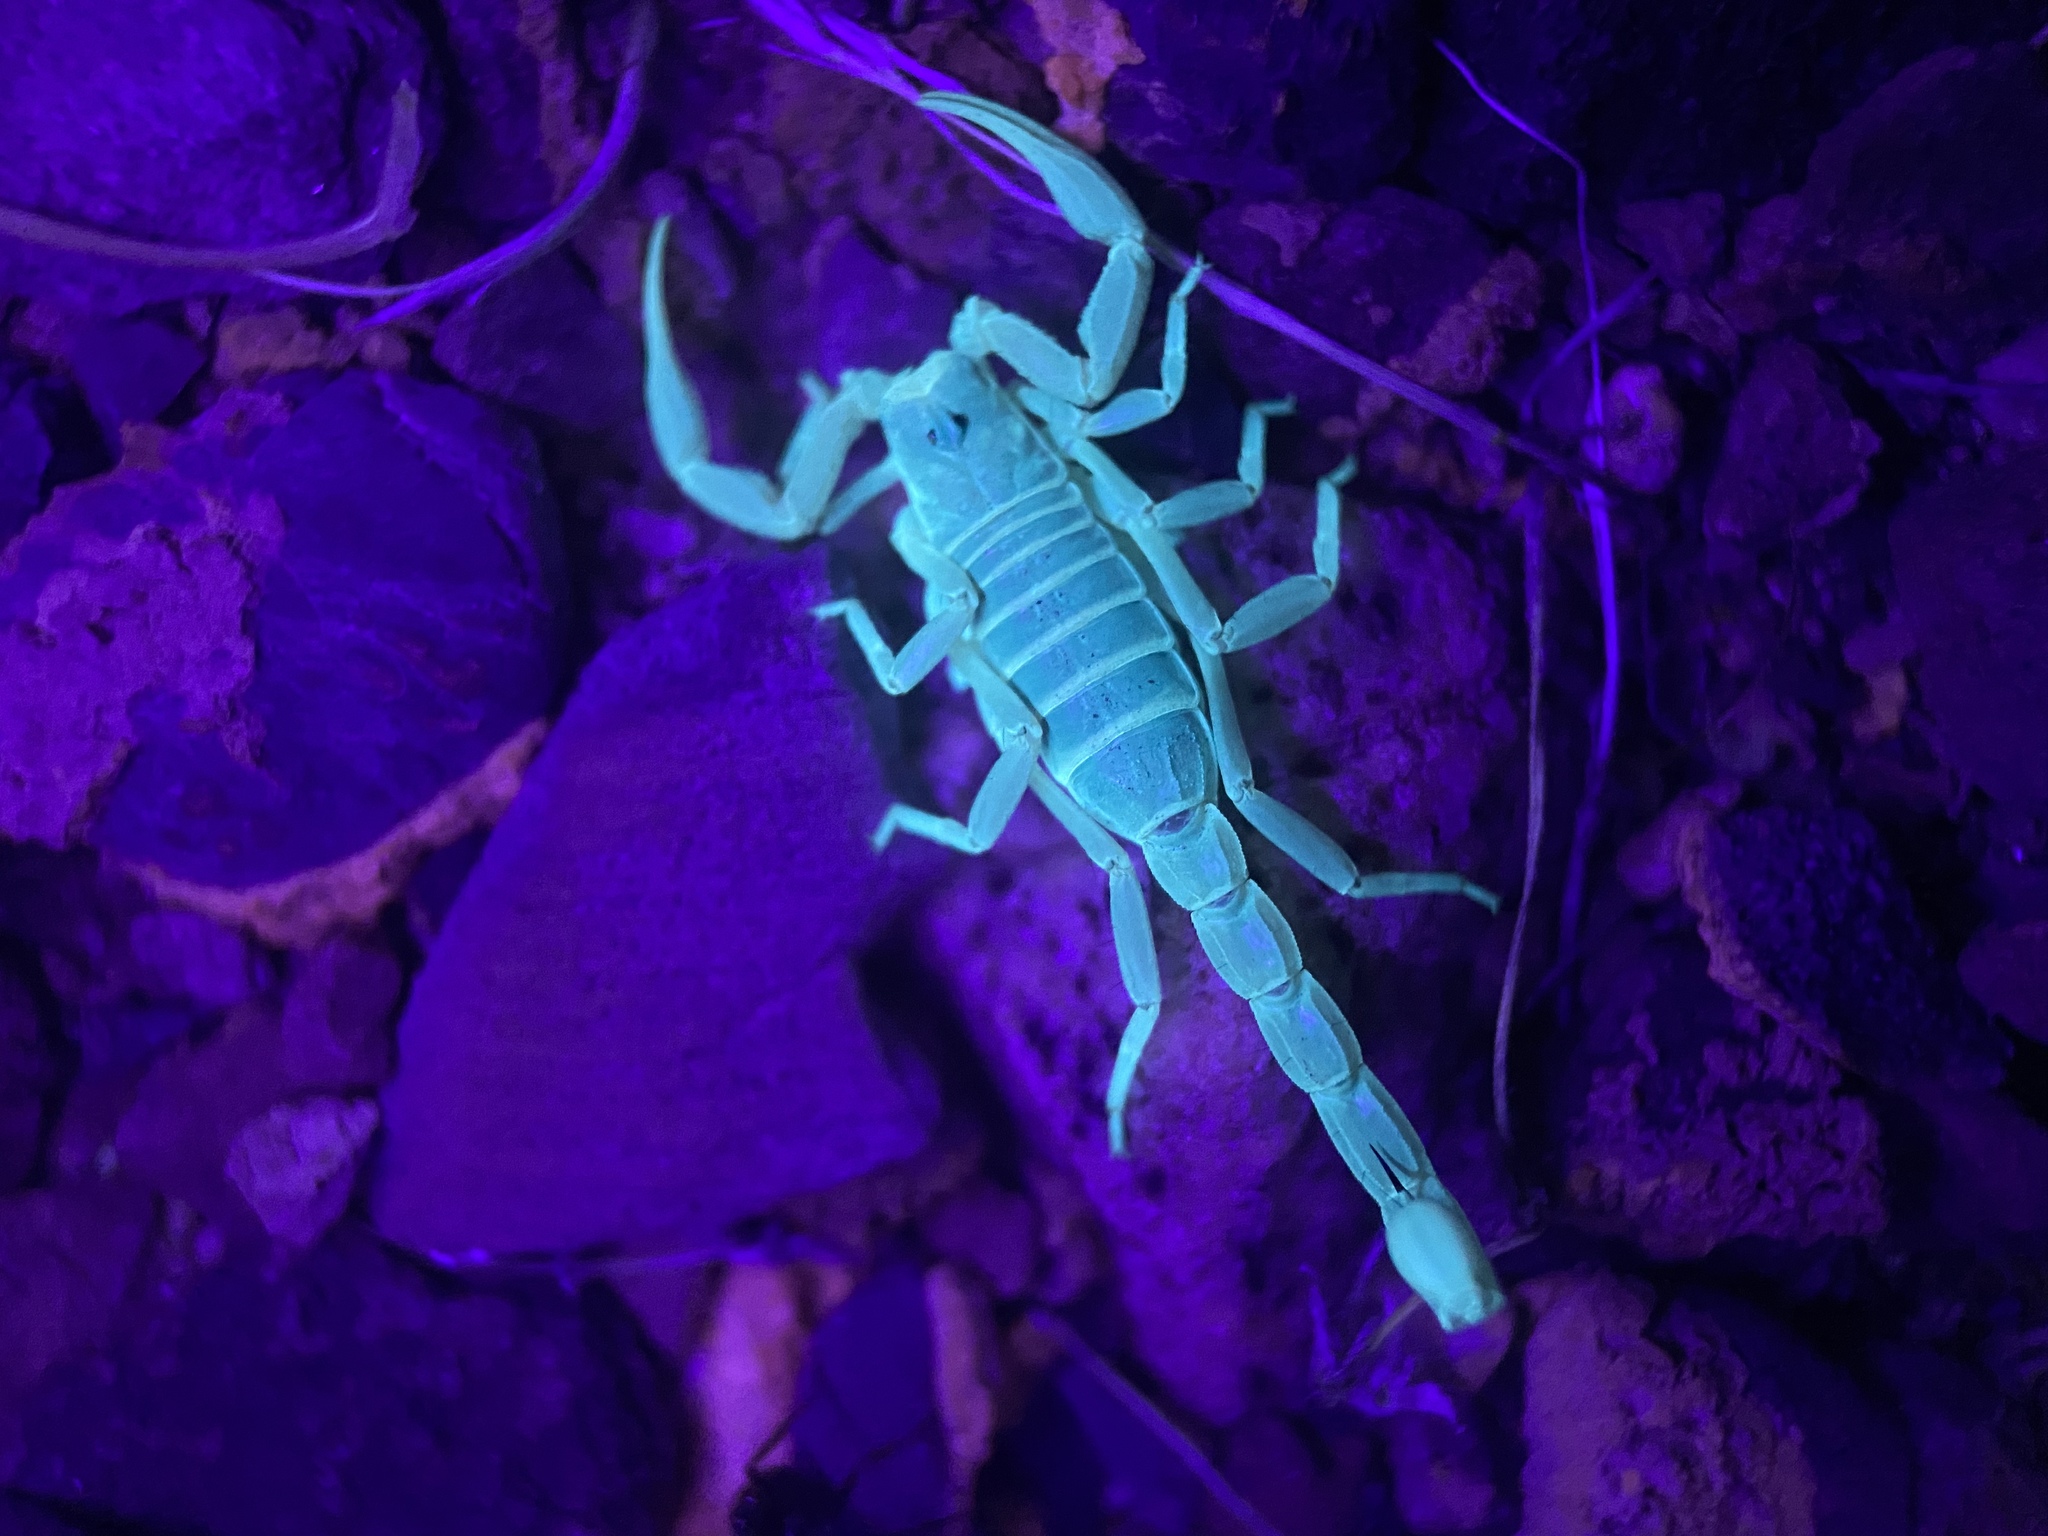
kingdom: Animalia
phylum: Arthropoda
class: Arachnida
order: Scorpiones
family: Vaejovidae
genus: Paruroctonus
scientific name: Paruroctonus becki
